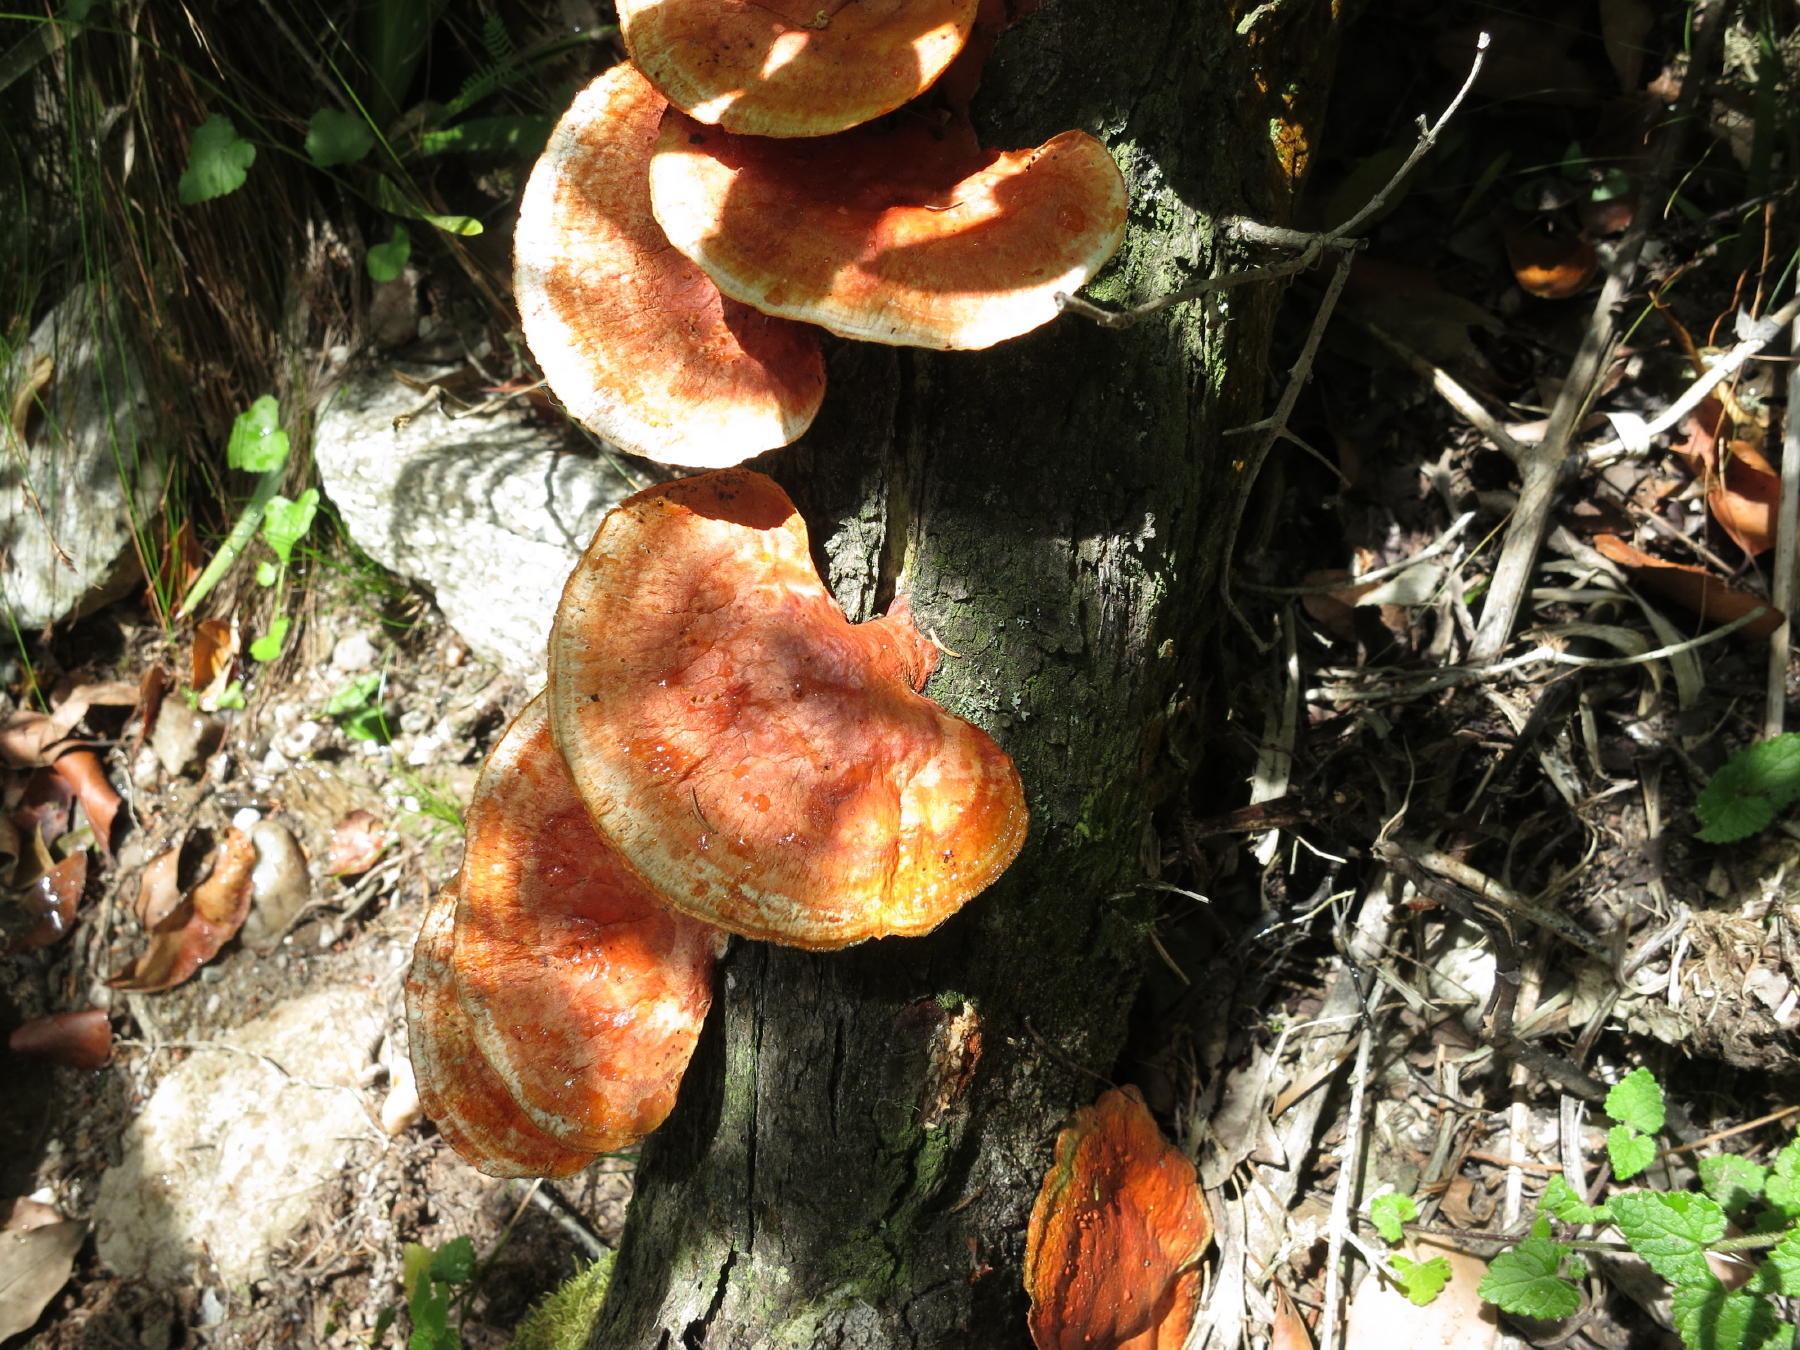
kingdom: Fungi
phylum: Basidiomycota
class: Agaricomycetes
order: Polyporales
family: Polyporaceae
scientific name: Polyporaceae
